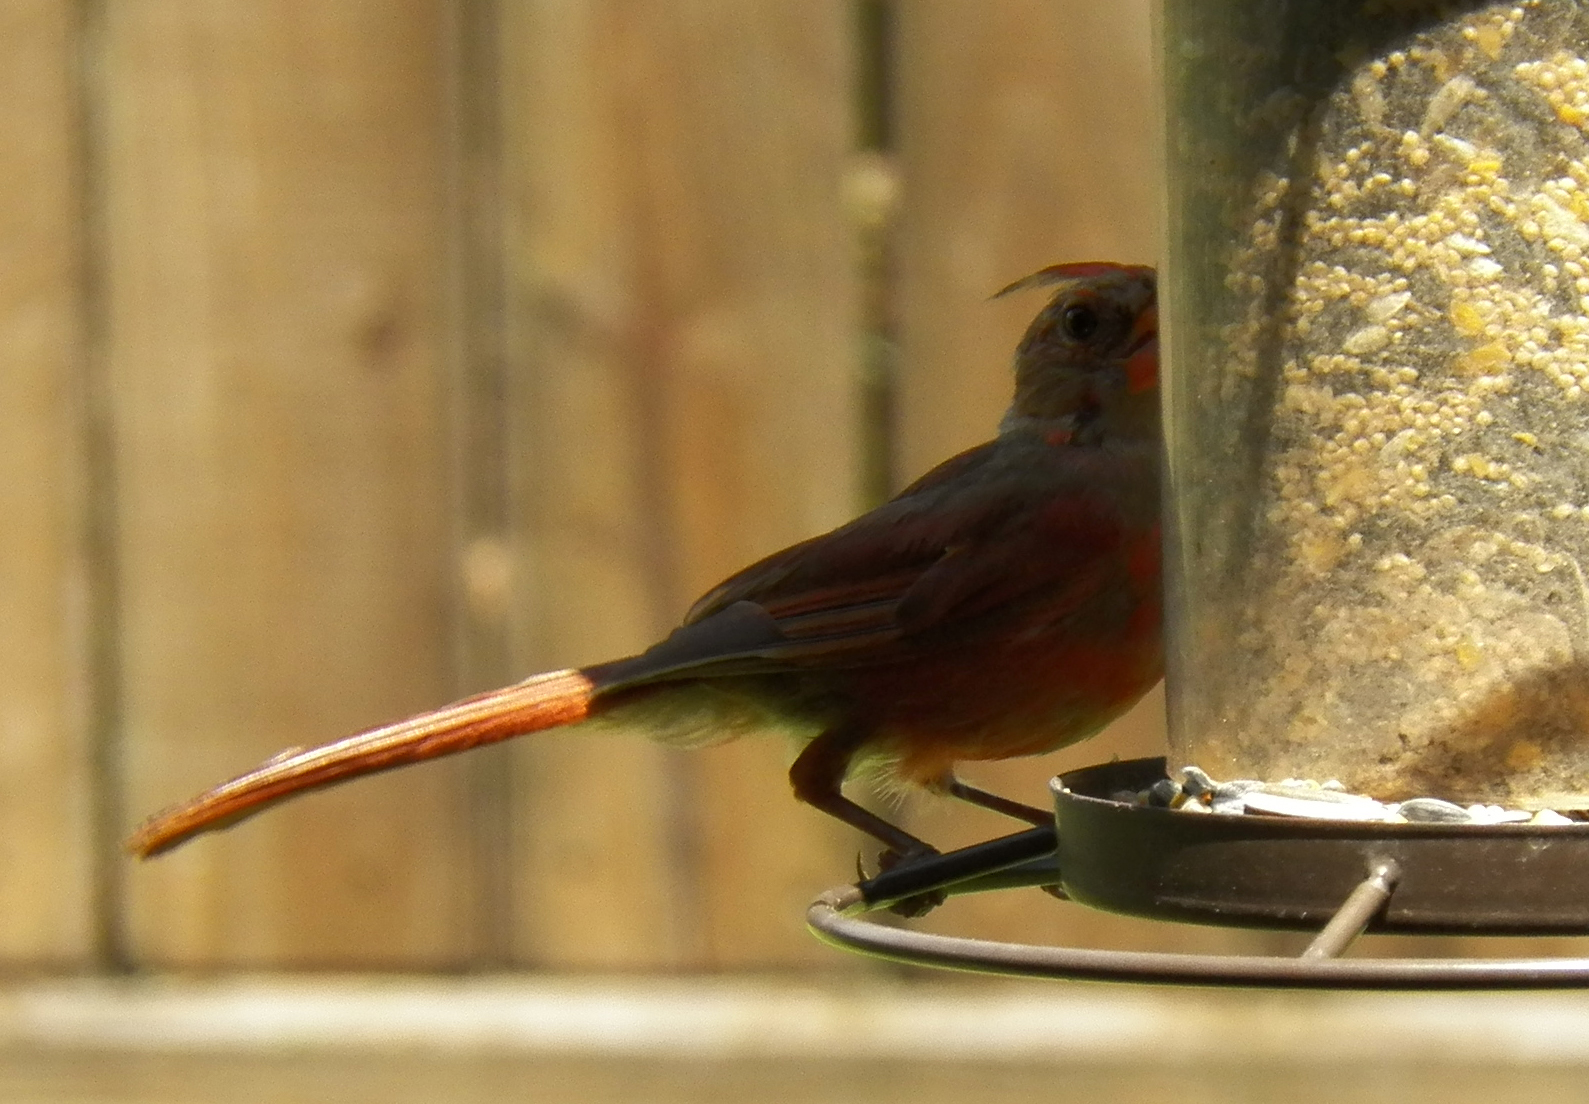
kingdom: Animalia
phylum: Chordata
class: Aves
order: Passeriformes
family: Cardinalidae
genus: Cardinalis
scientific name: Cardinalis cardinalis
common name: Northern cardinal
